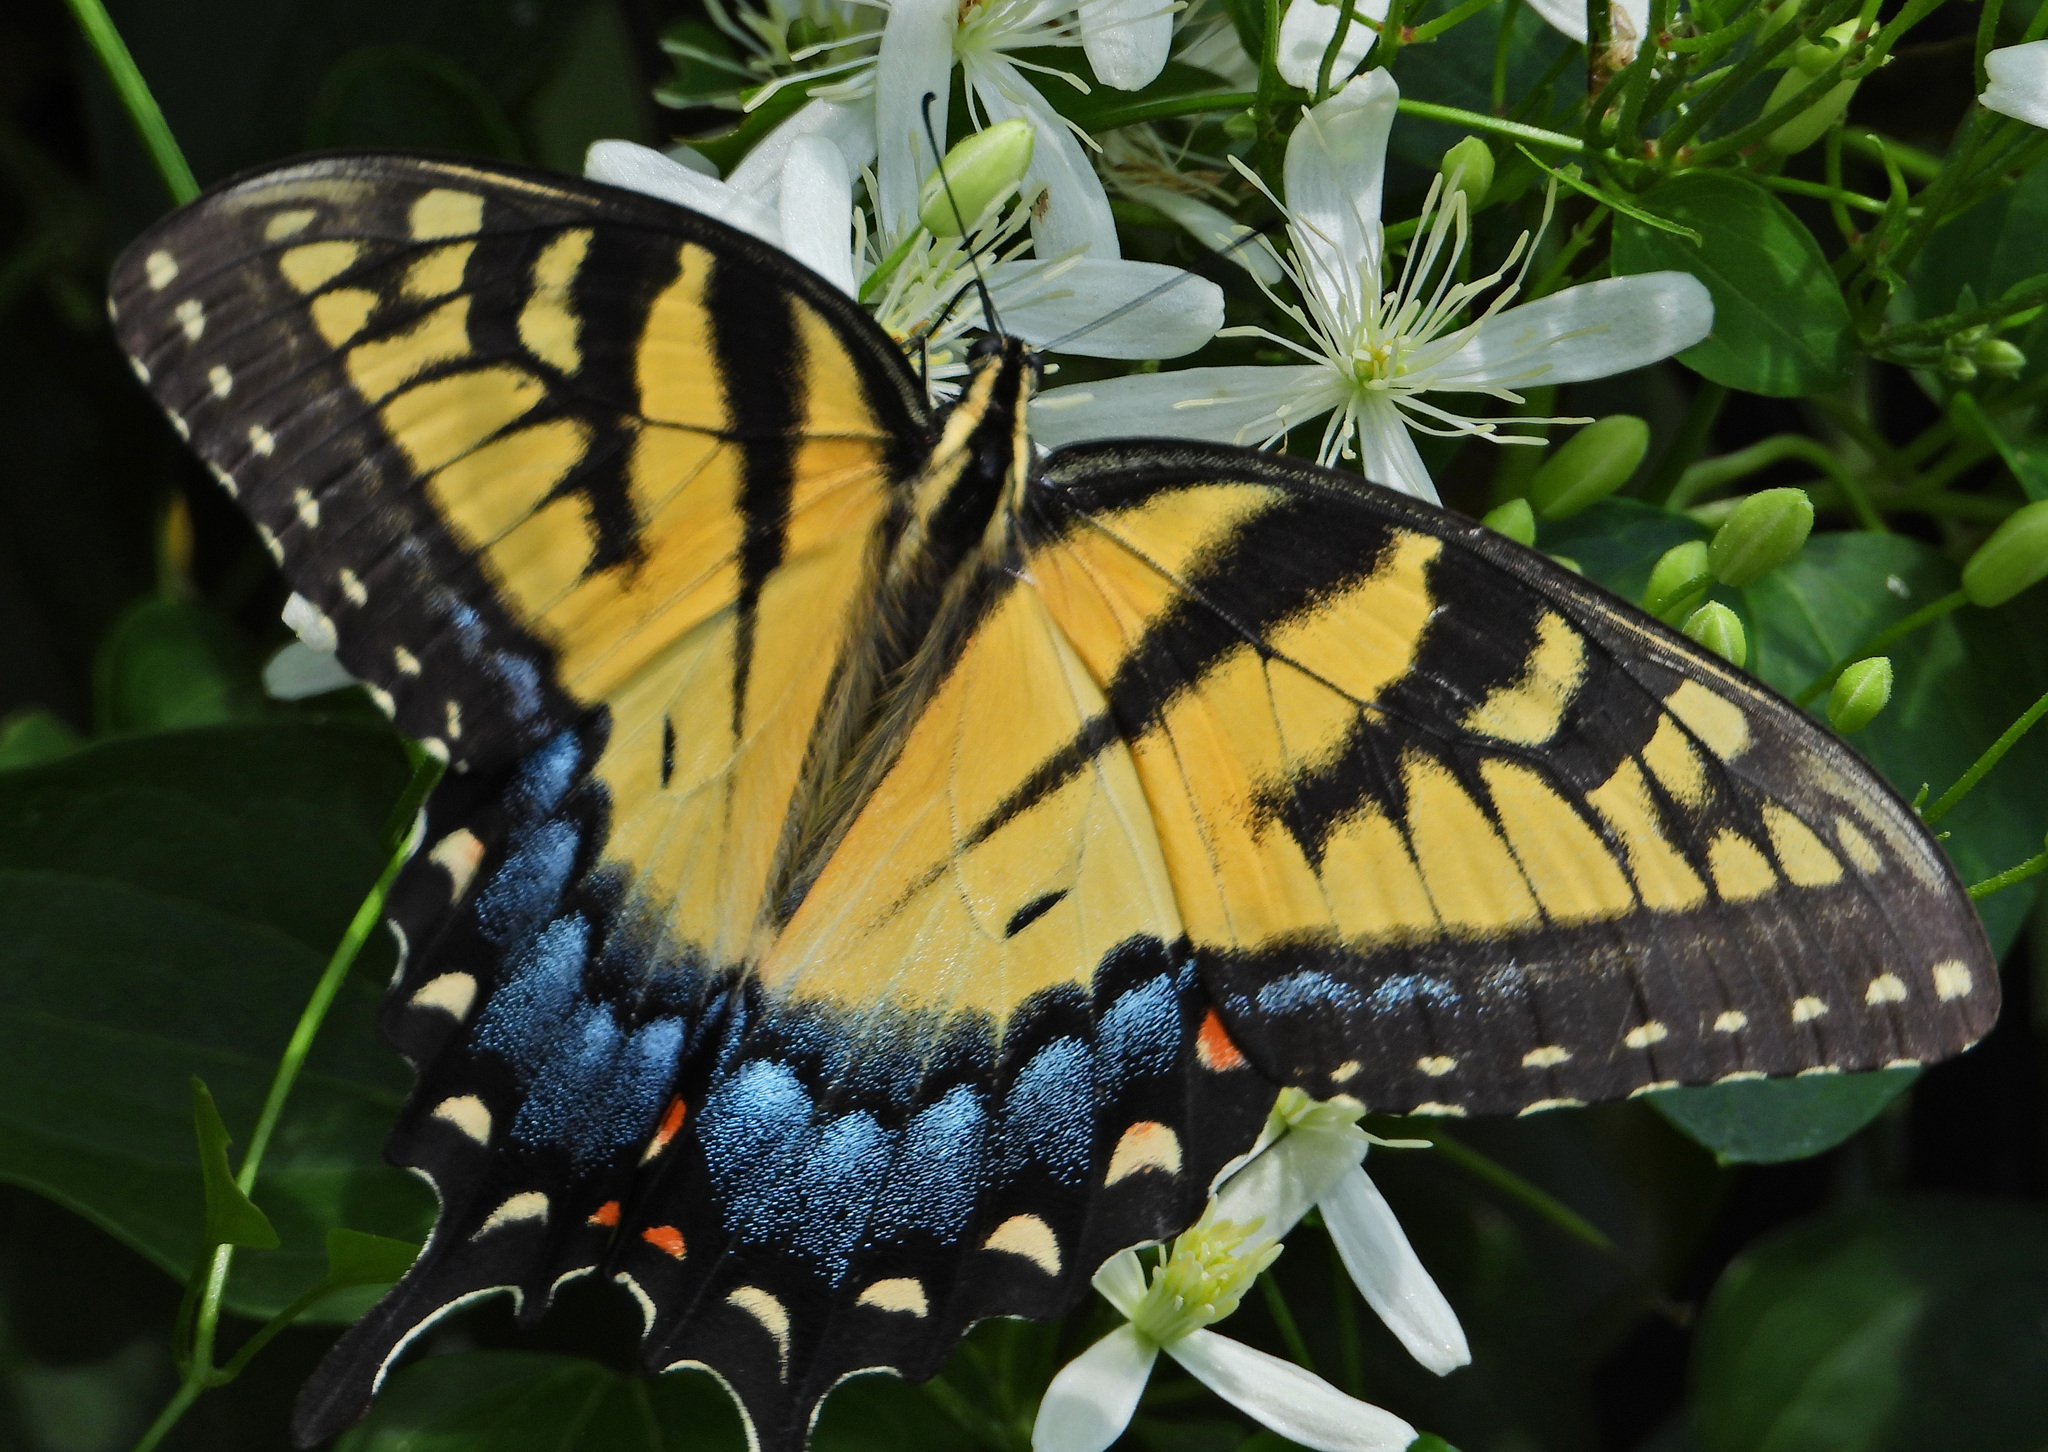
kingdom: Animalia
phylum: Arthropoda
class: Insecta
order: Lepidoptera
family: Papilionidae
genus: Papilio
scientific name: Papilio glaucus
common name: Tiger swallowtail
